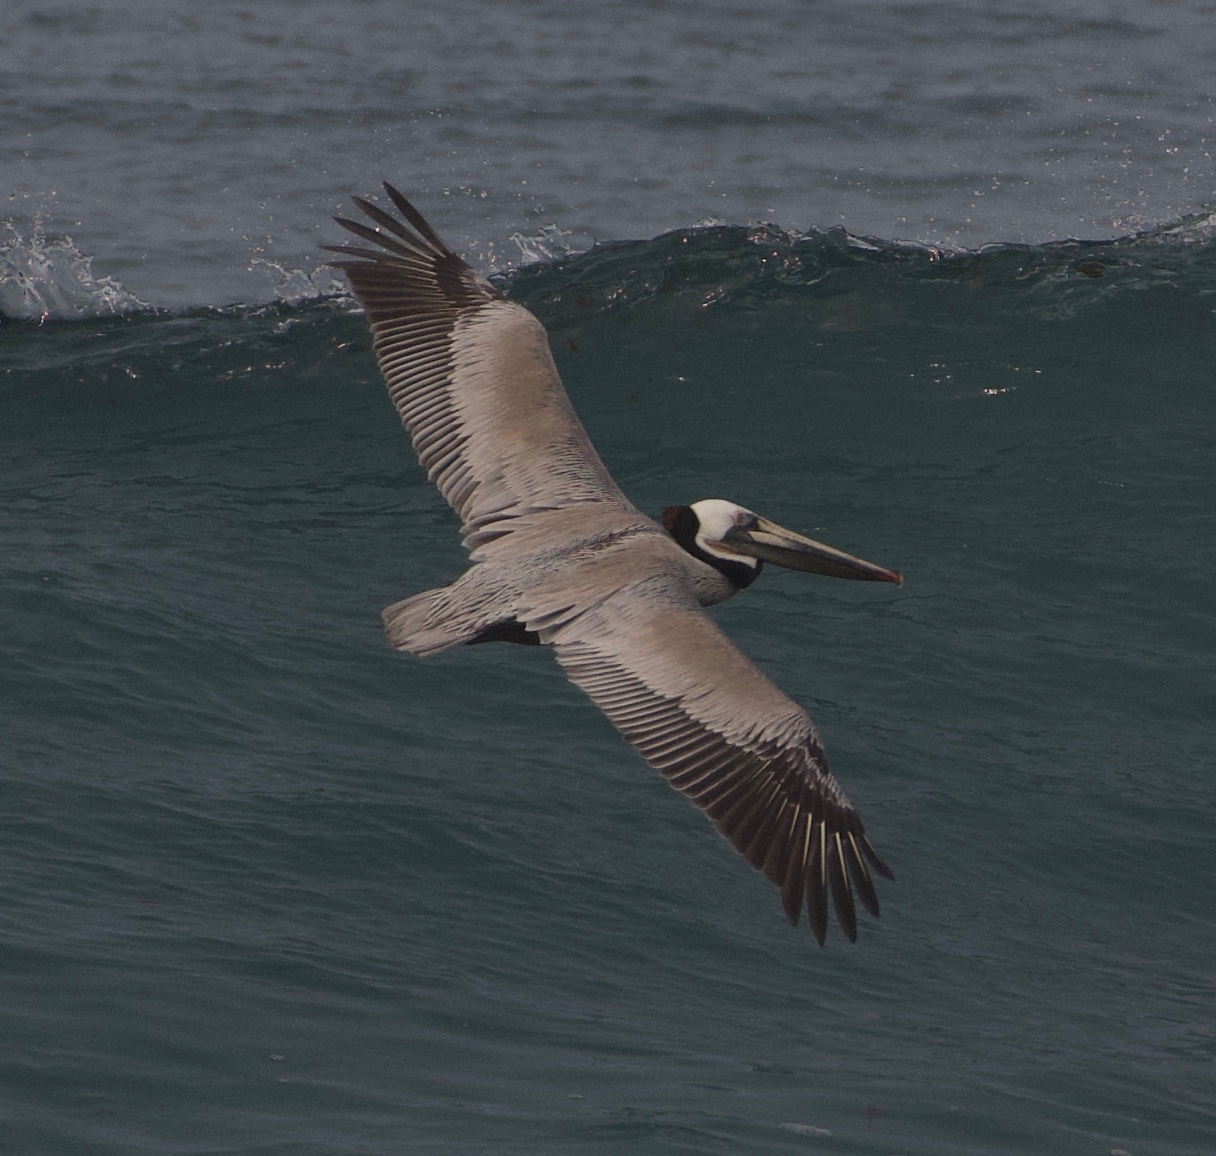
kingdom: Animalia
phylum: Chordata
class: Aves
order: Pelecaniformes
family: Pelecanidae
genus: Pelecanus
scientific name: Pelecanus occidentalis
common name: Brown pelican
